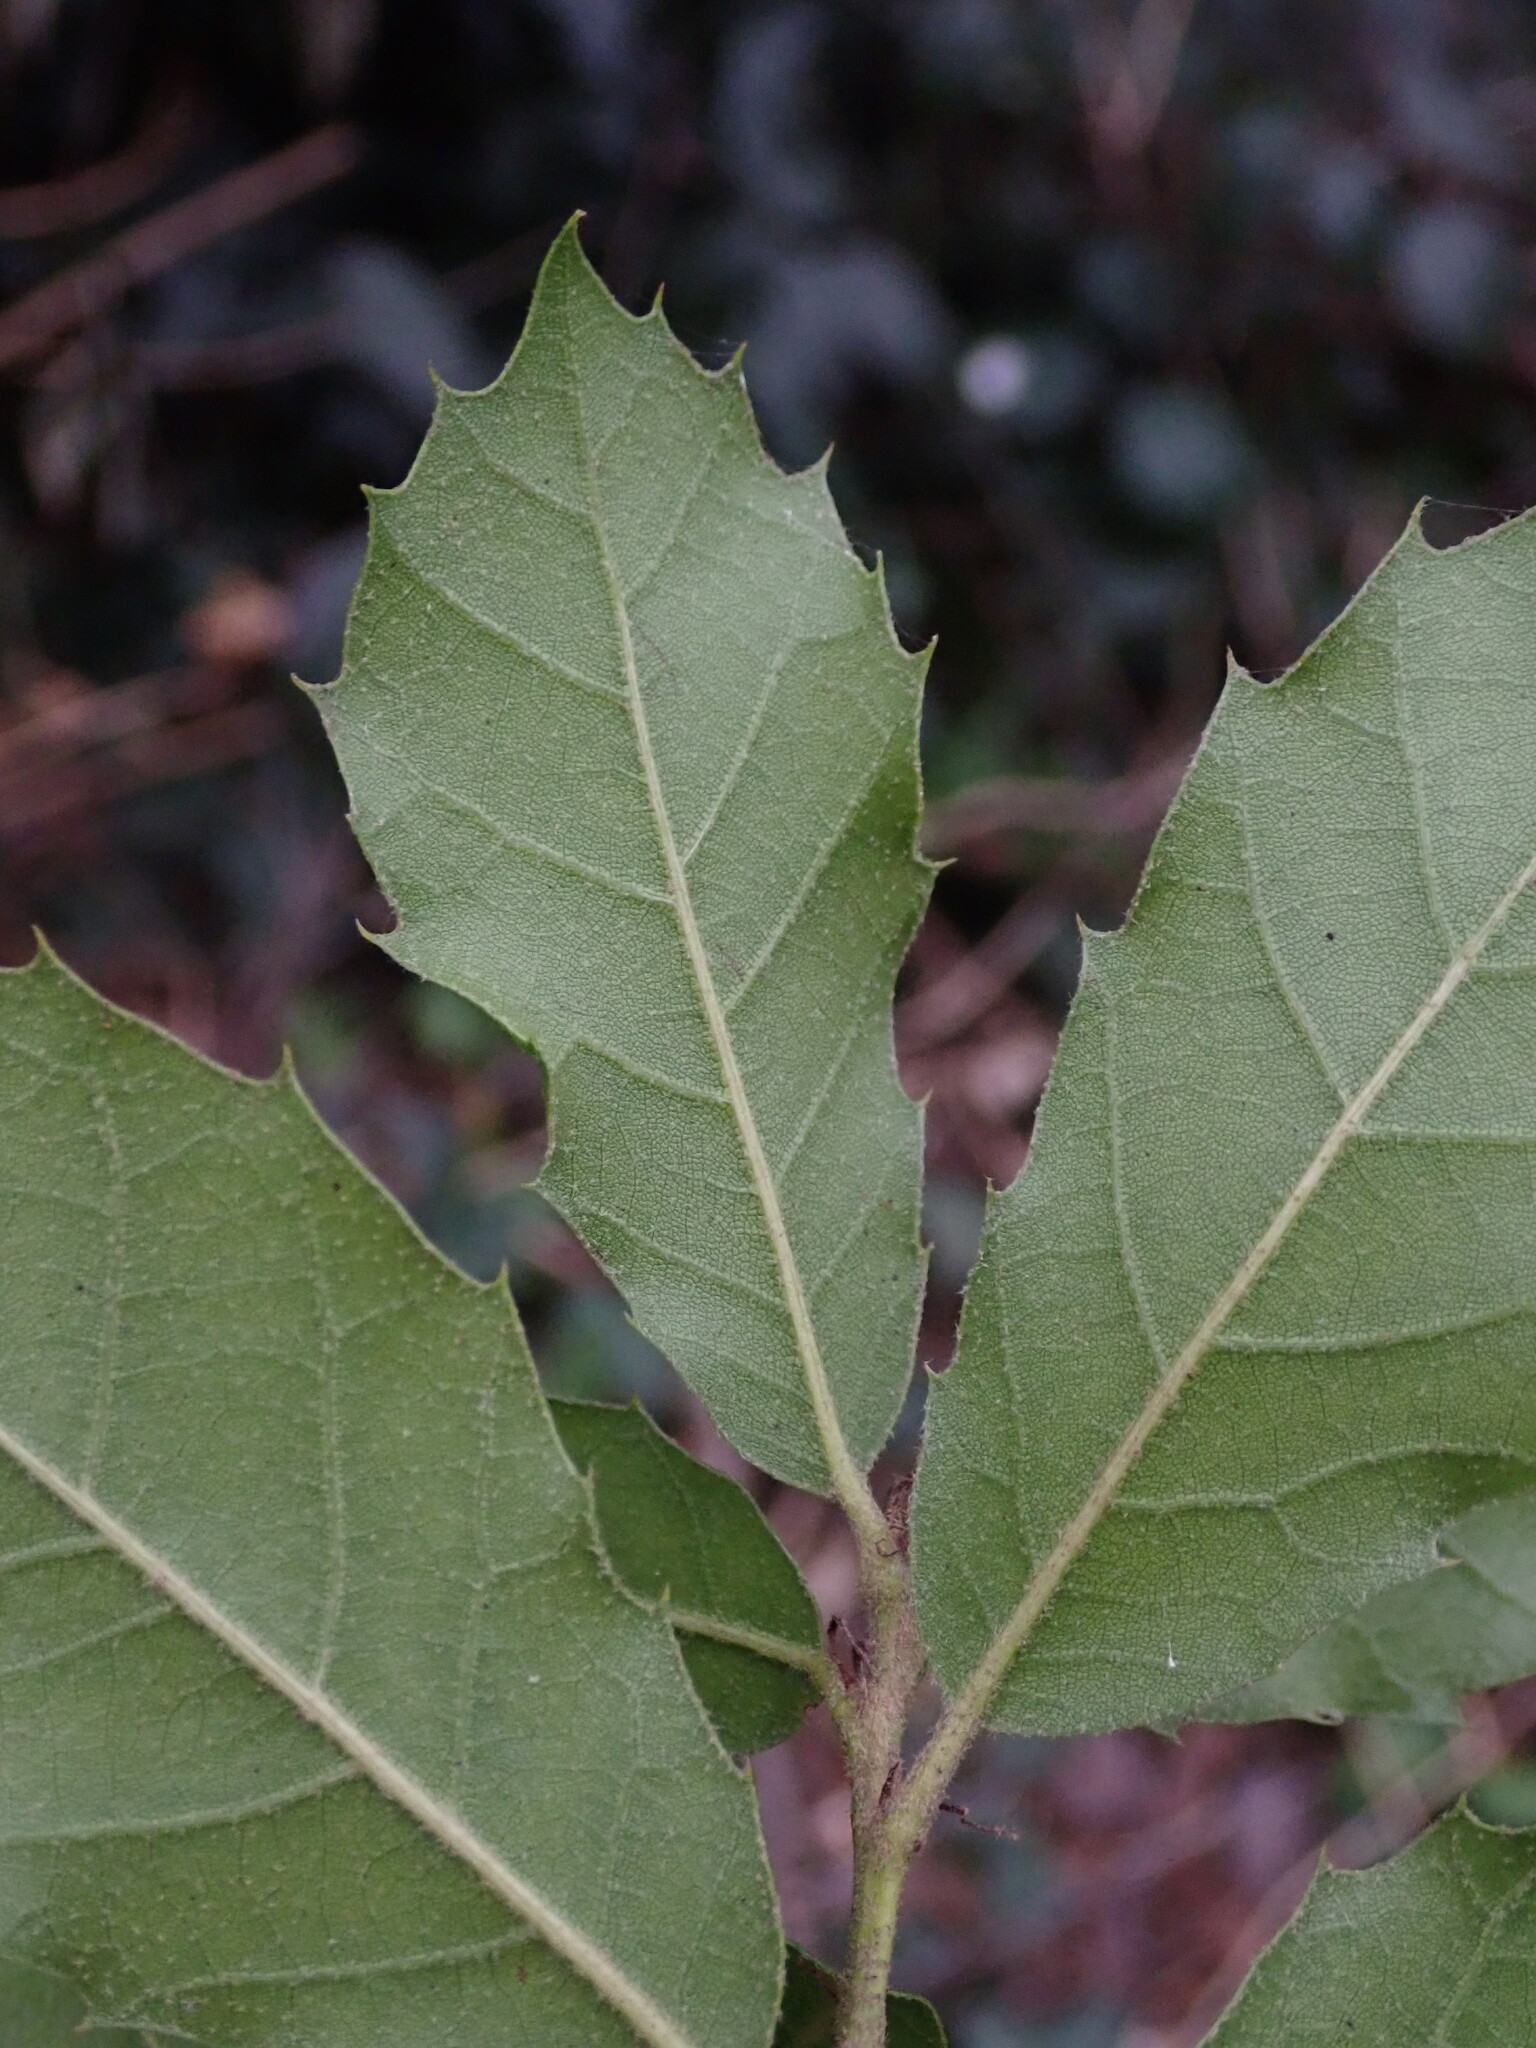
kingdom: Plantae
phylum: Tracheophyta
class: Magnoliopsida
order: Fagales
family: Fagaceae
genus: Quercus
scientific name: Quercus ilex
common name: Evergreen oak
